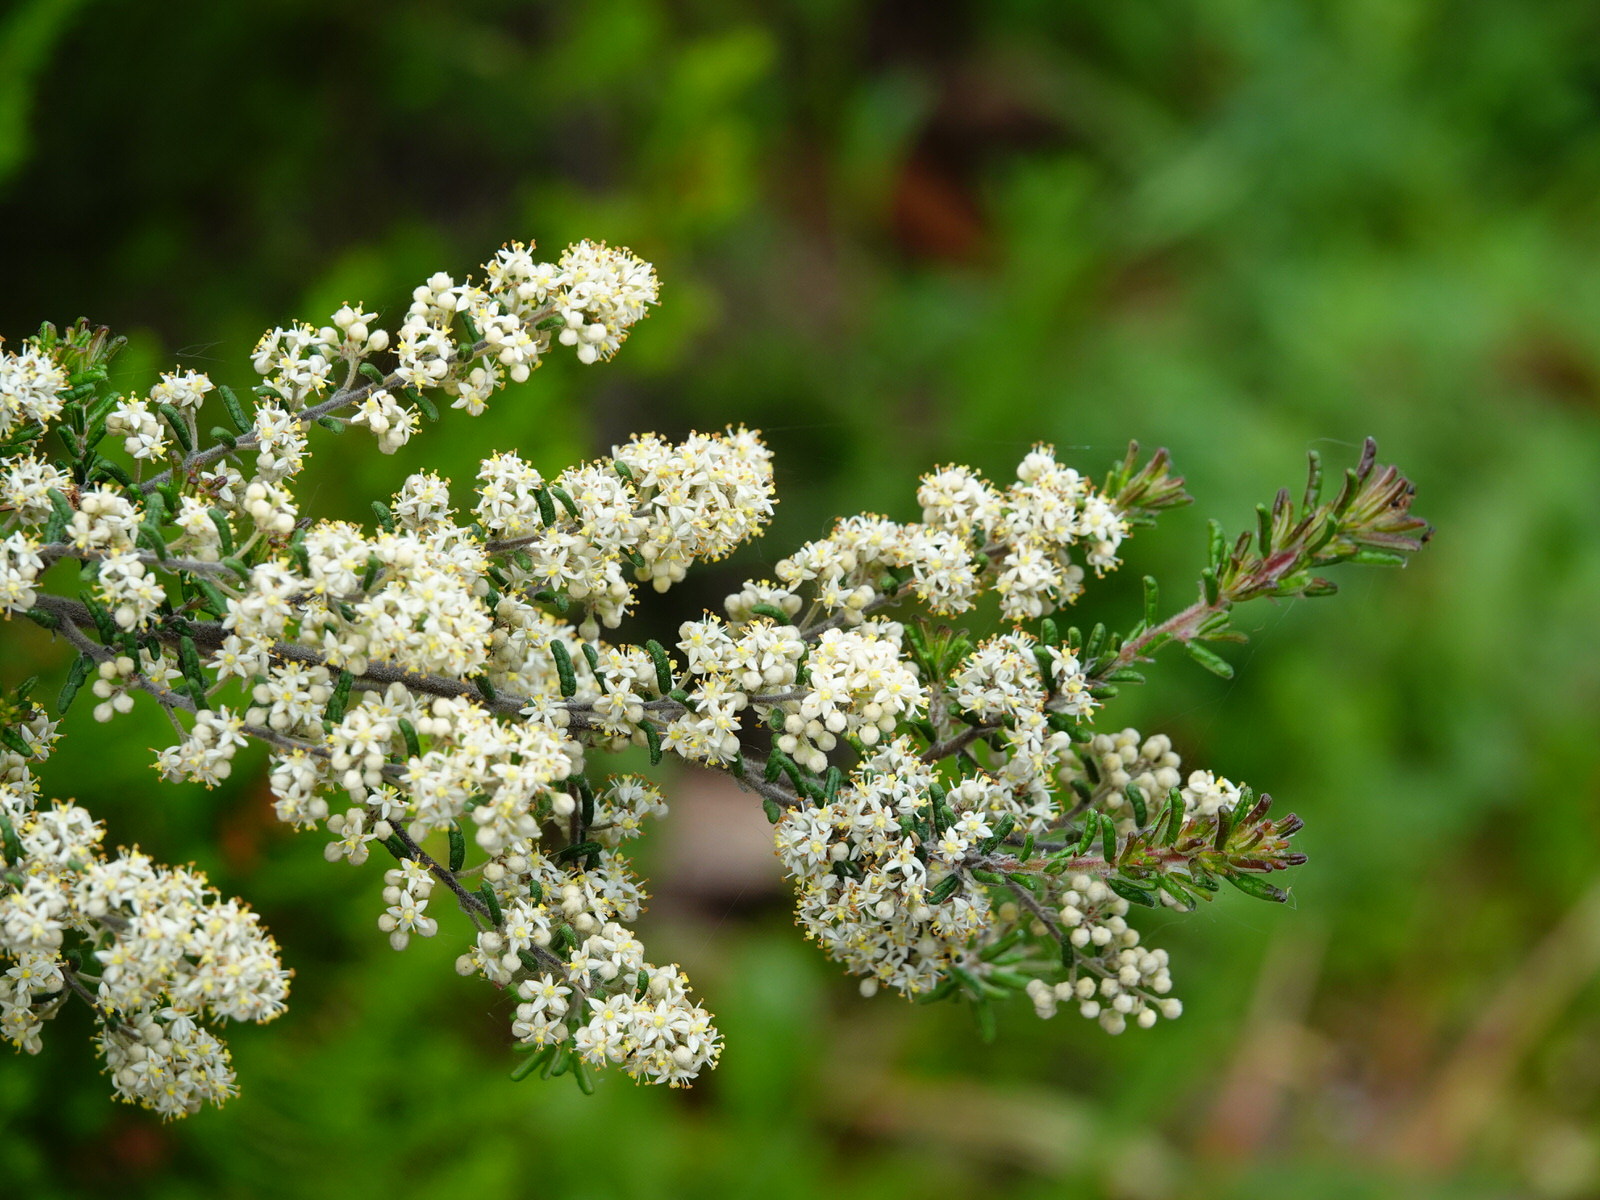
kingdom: Plantae
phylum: Tracheophyta
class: Magnoliopsida
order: Rosales
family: Rhamnaceae
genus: Pomaderris
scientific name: Pomaderris amoena
